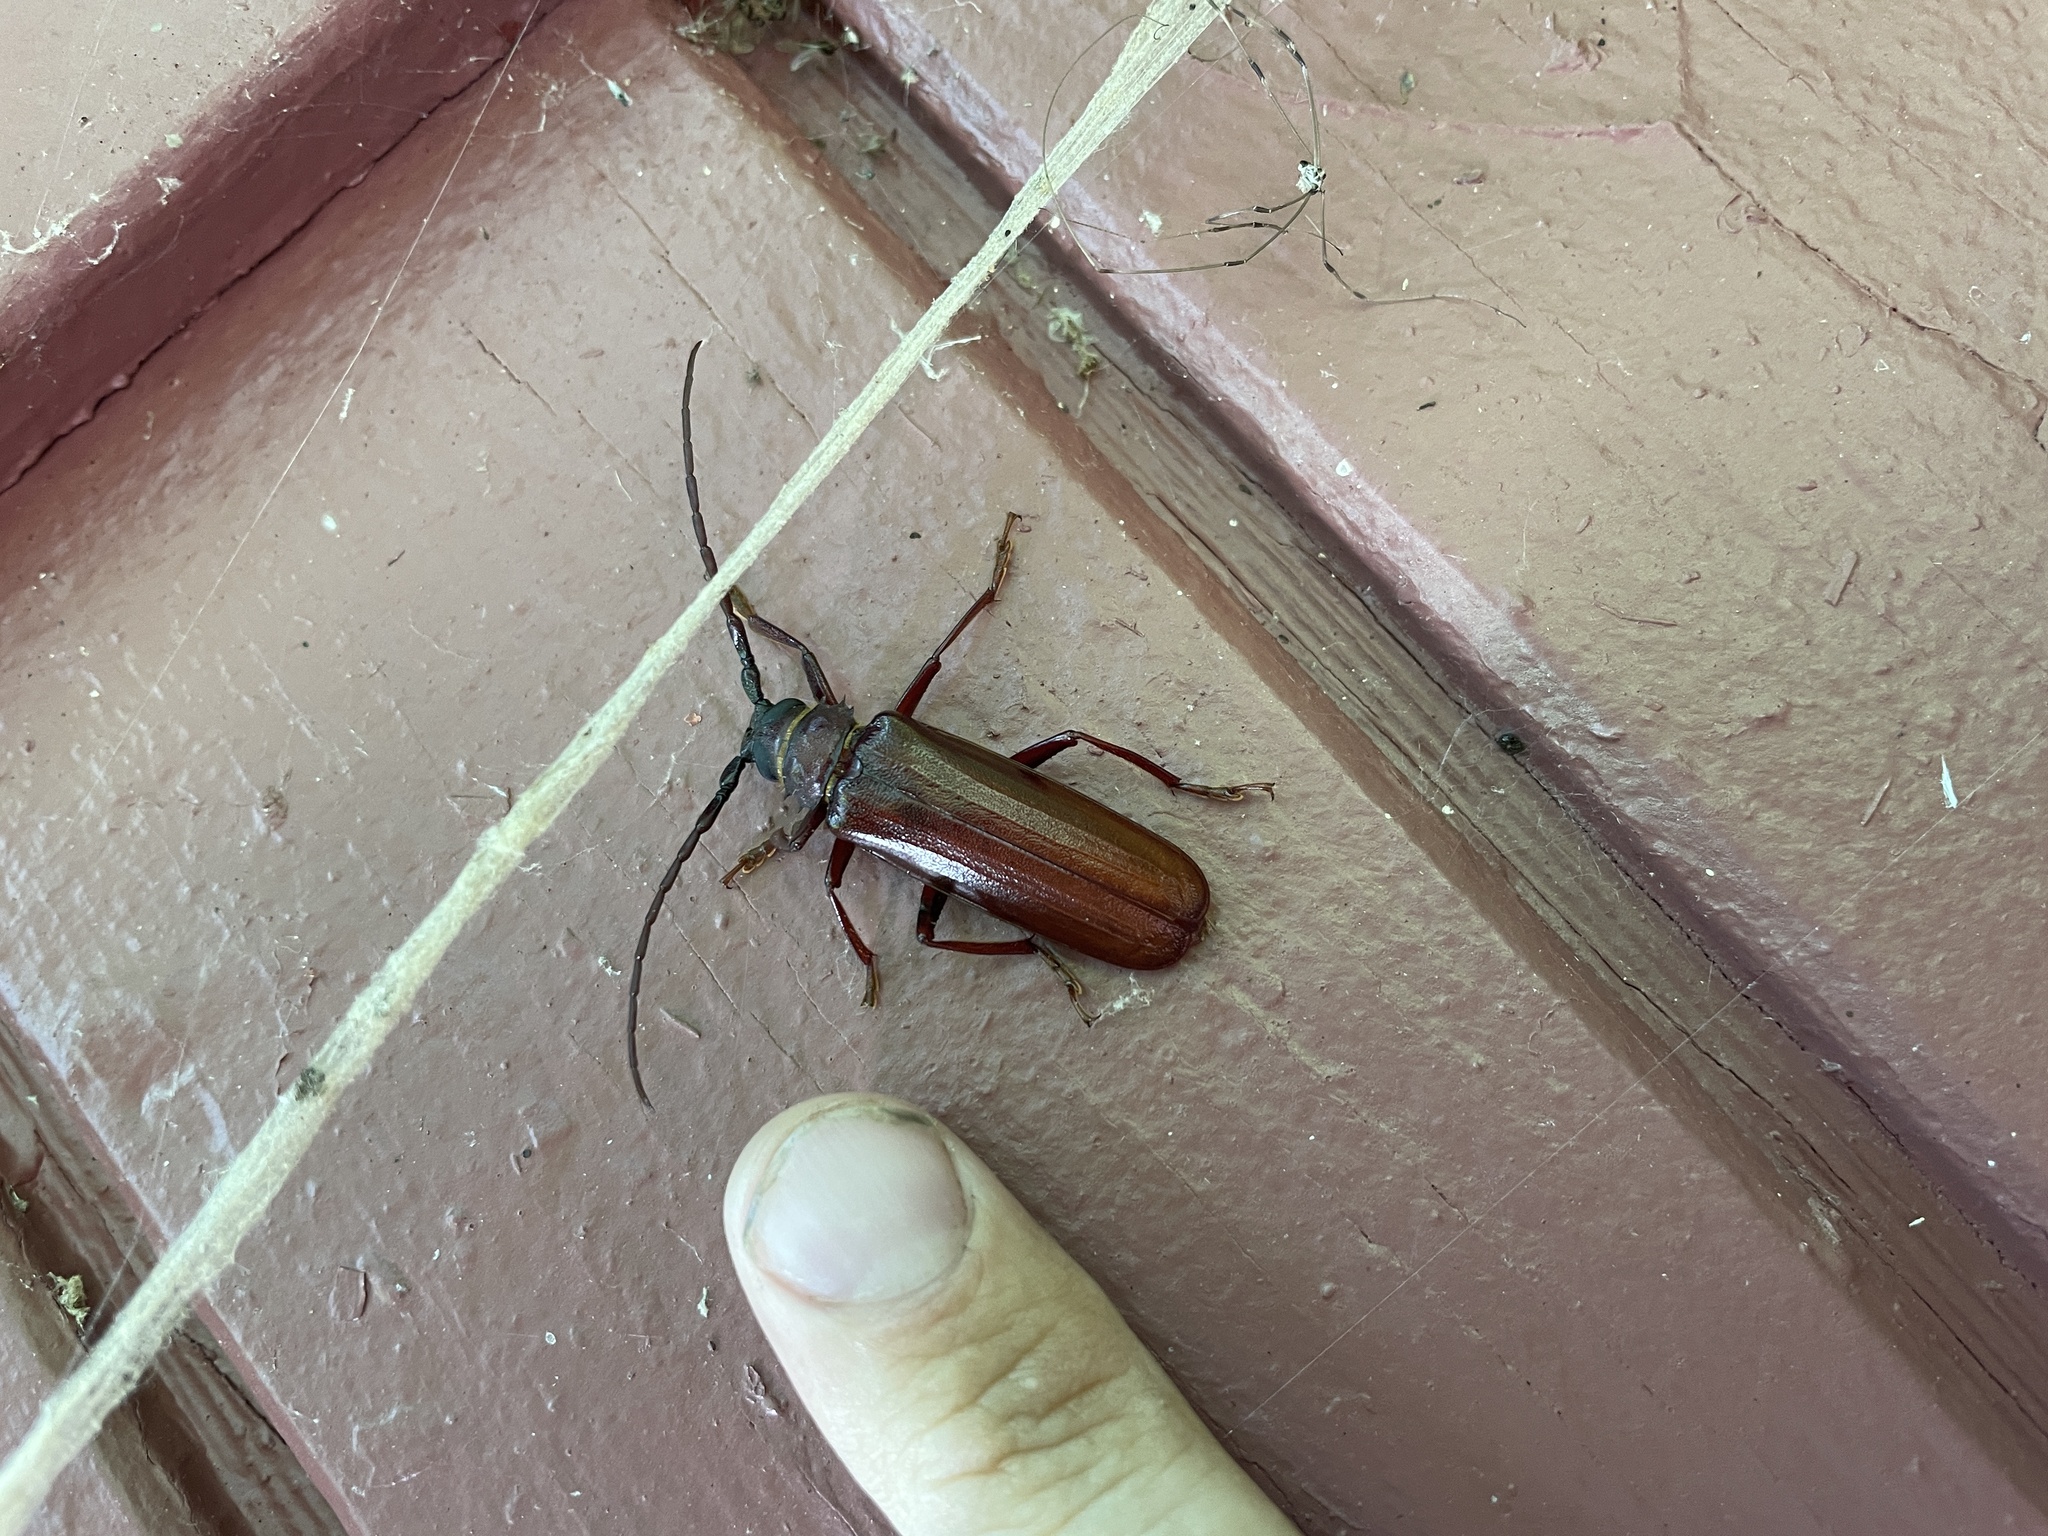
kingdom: Animalia
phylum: Arthropoda
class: Insecta
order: Coleoptera
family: Cerambycidae
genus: Orthosoma
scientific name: Orthosoma brunneum
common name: Brown prionid beetle
